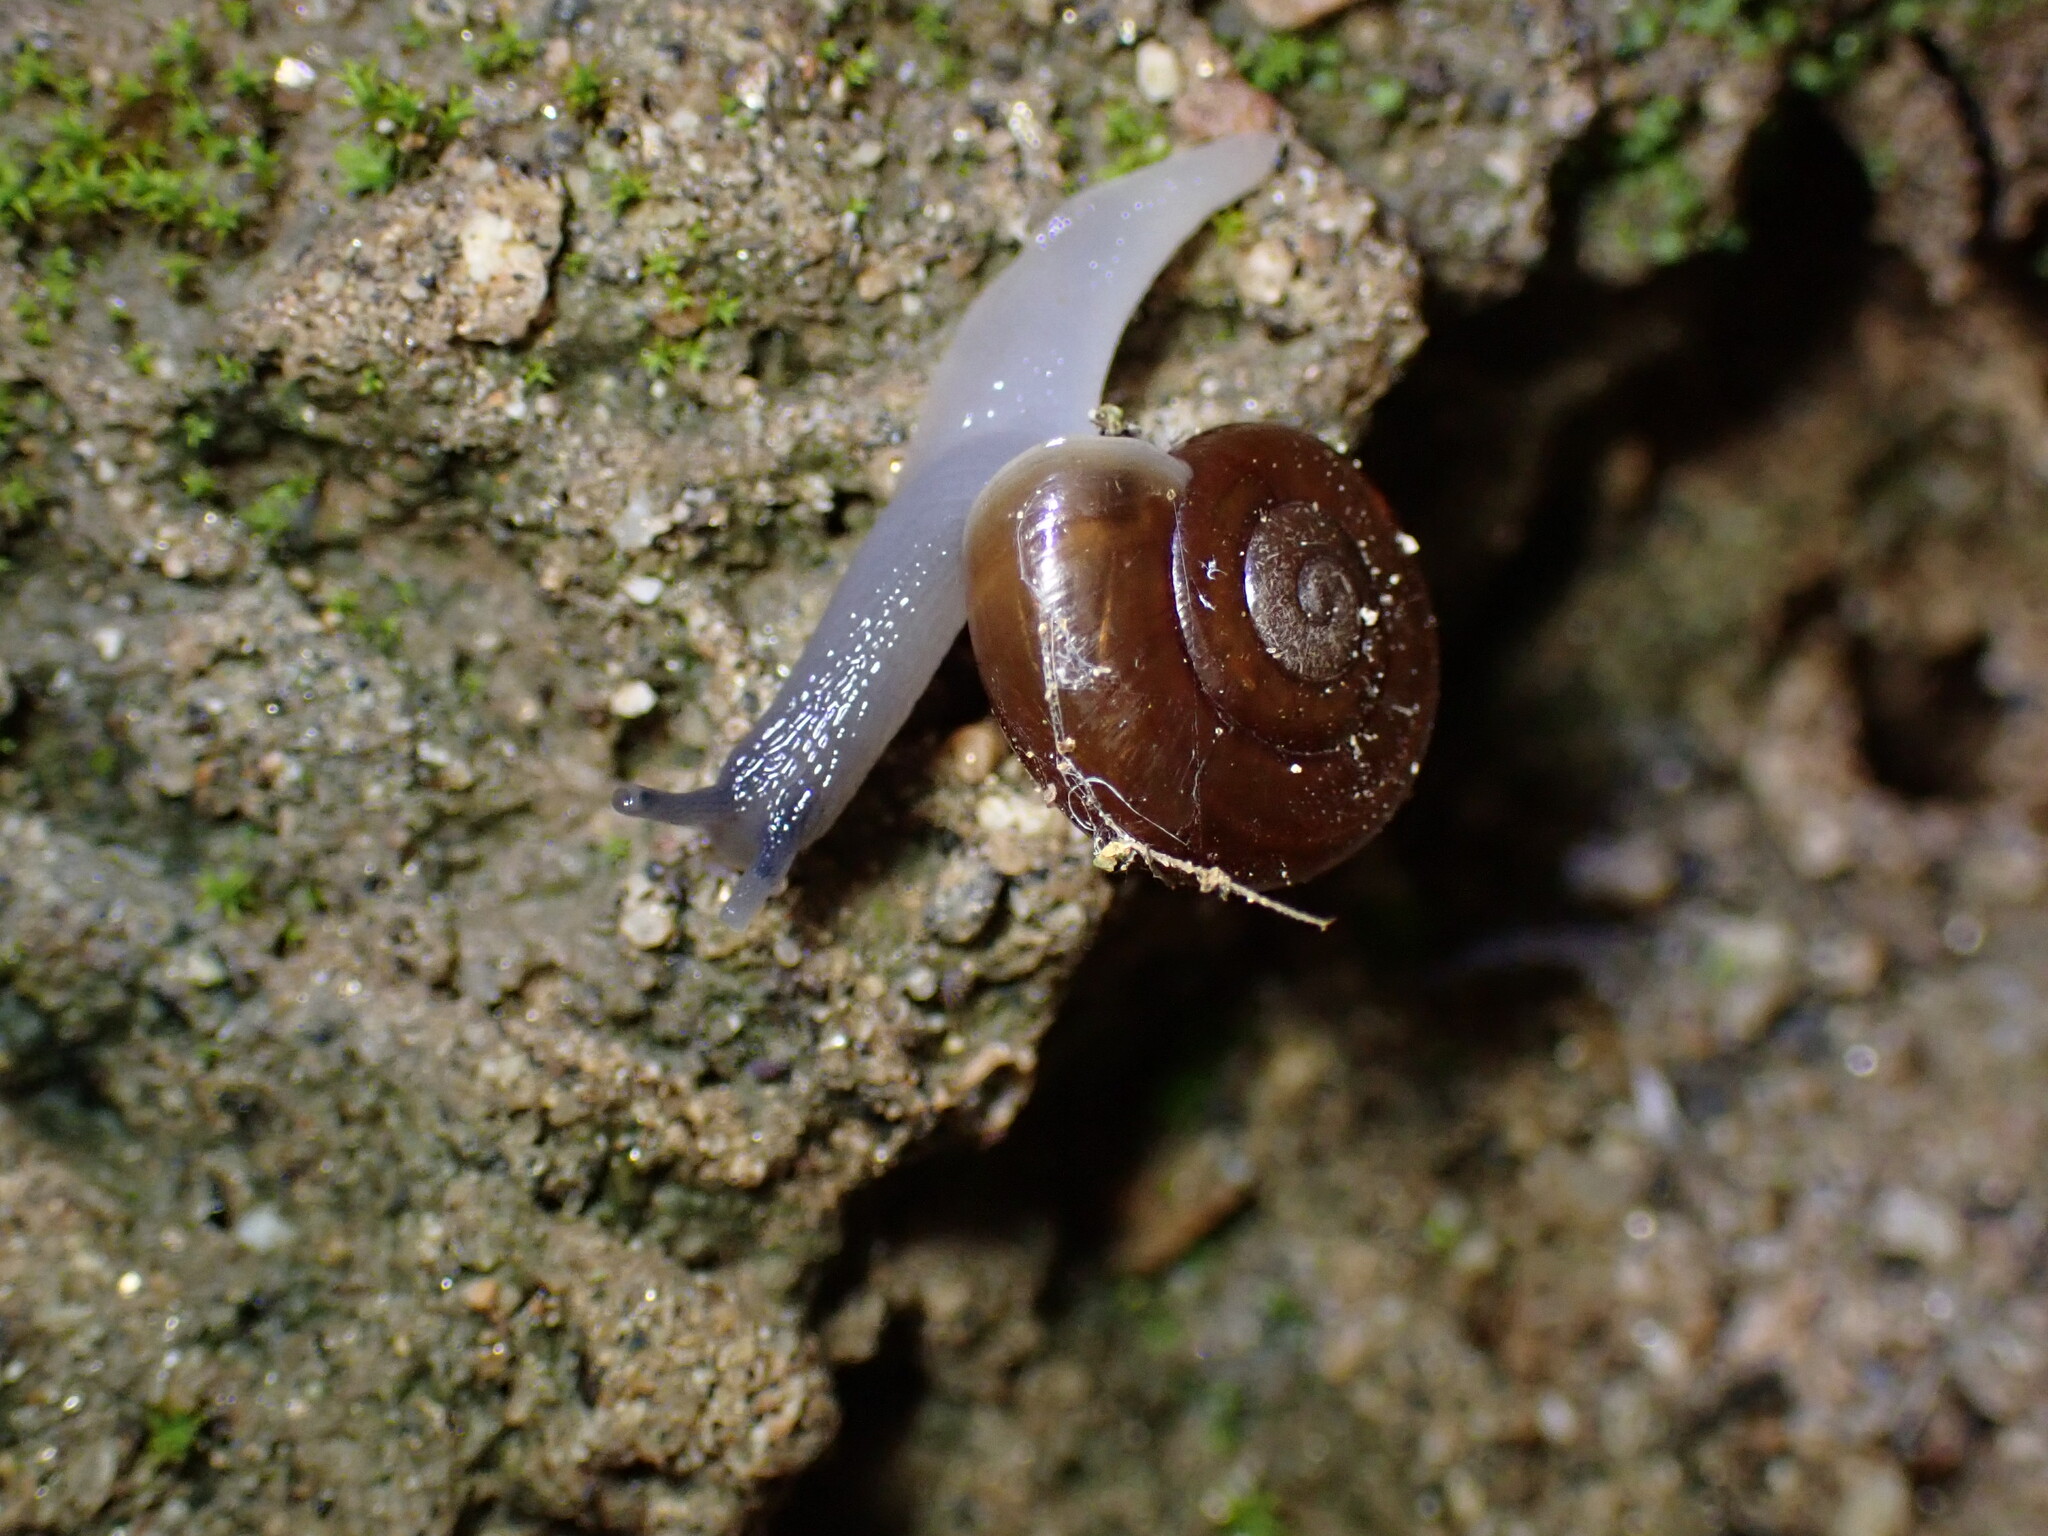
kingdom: Animalia
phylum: Mollusca
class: Gastropoda
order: Stylommatophora
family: Megomphicidae
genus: Glyptostoma
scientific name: Glyptostoma gabrielense
